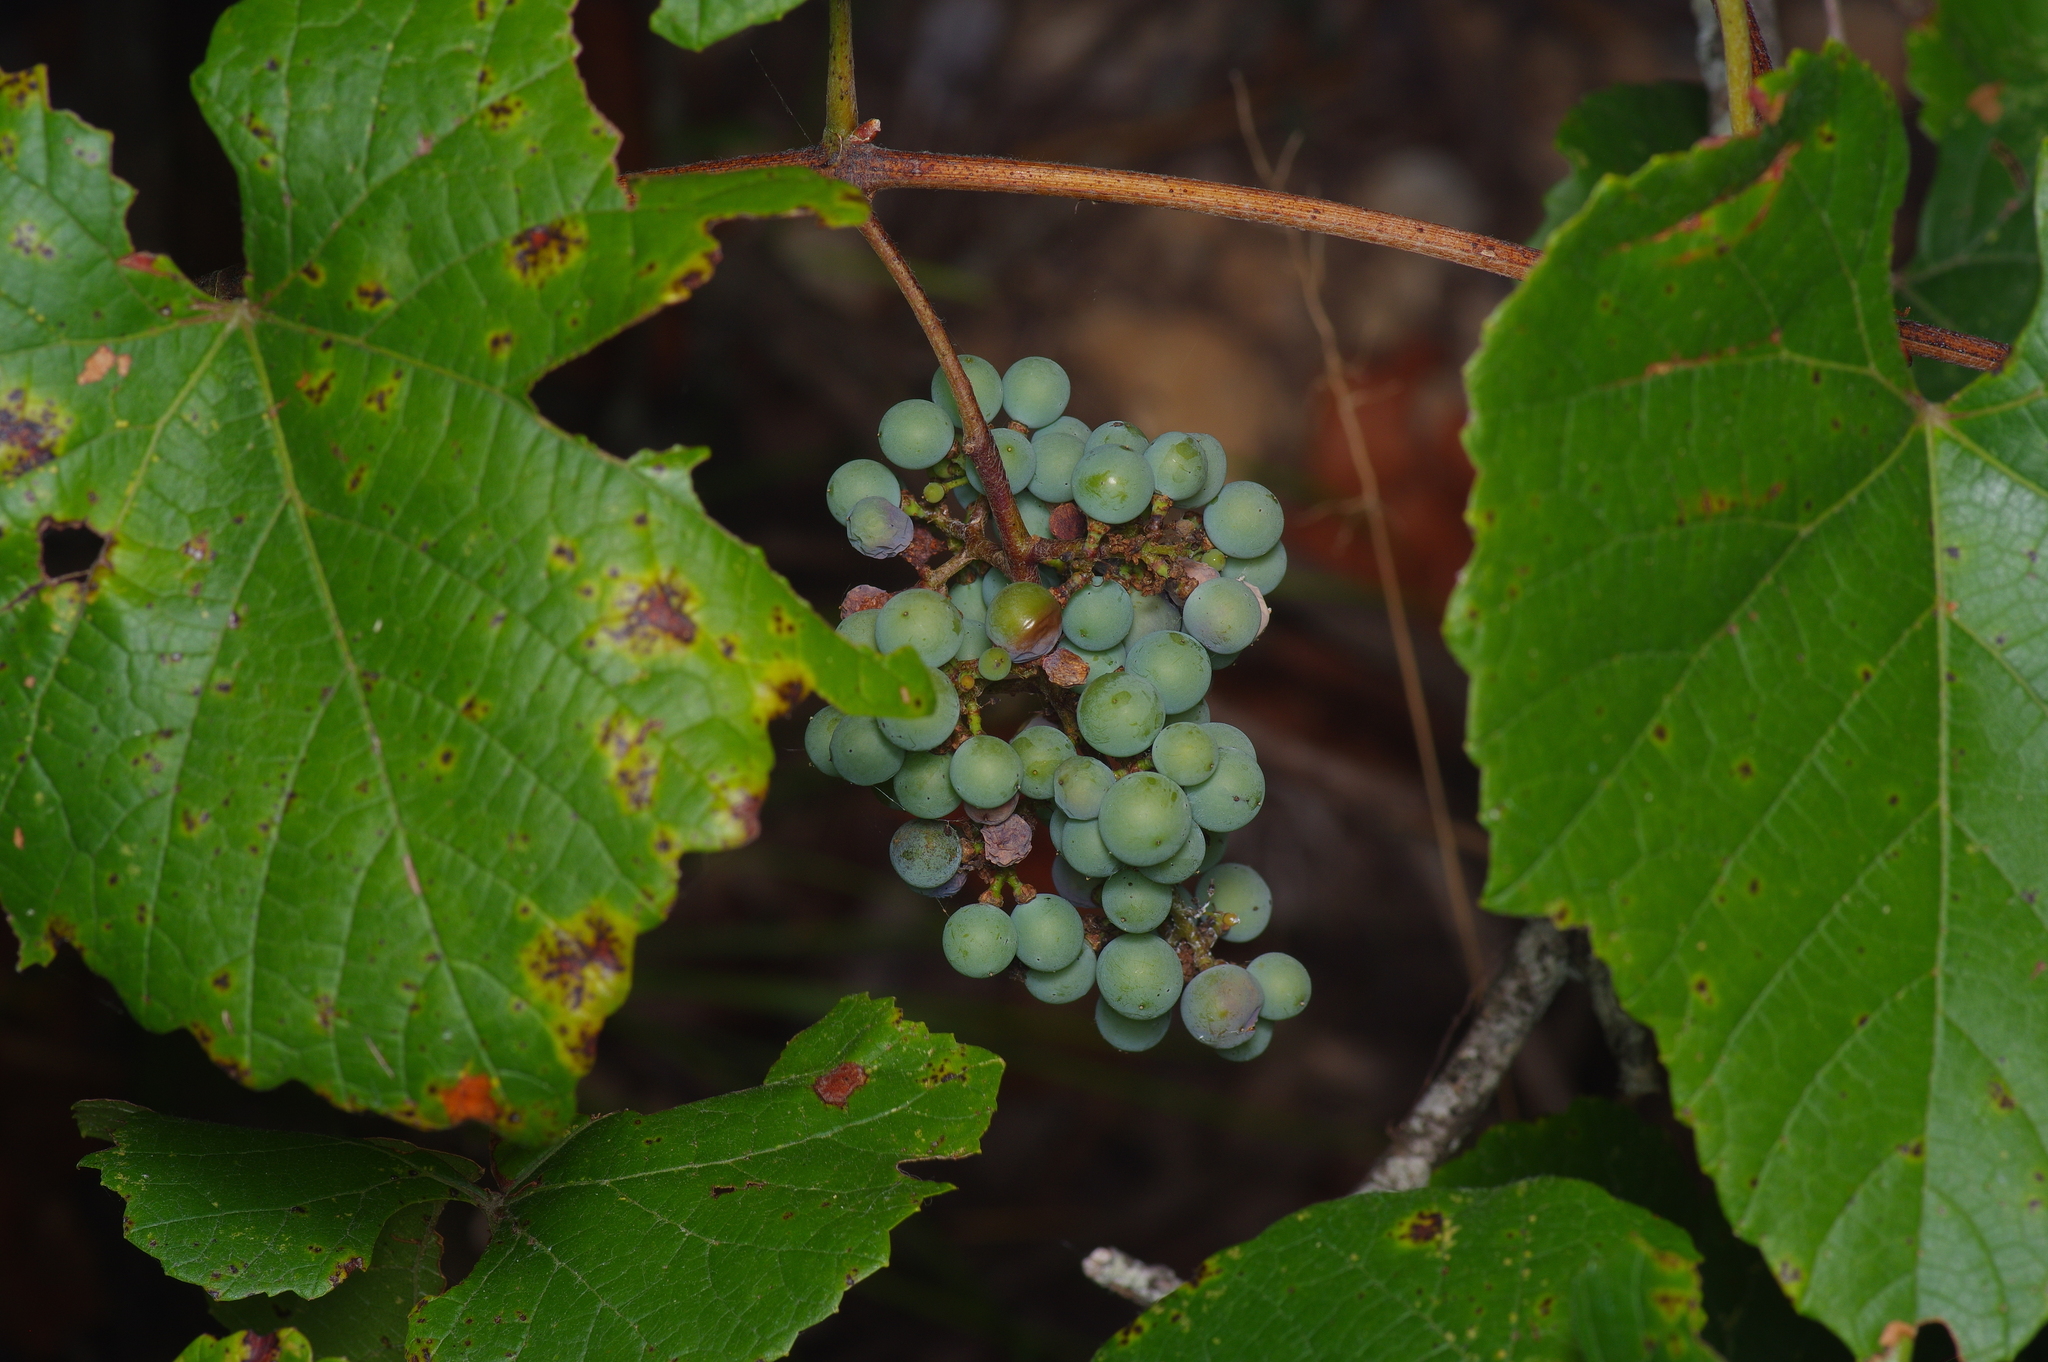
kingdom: Plantae
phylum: Tracheophyta
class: Magnoliopsida
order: Vitales
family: Vitaceae
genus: Vitis
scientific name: Vitis cinerea
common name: Ashy grape
